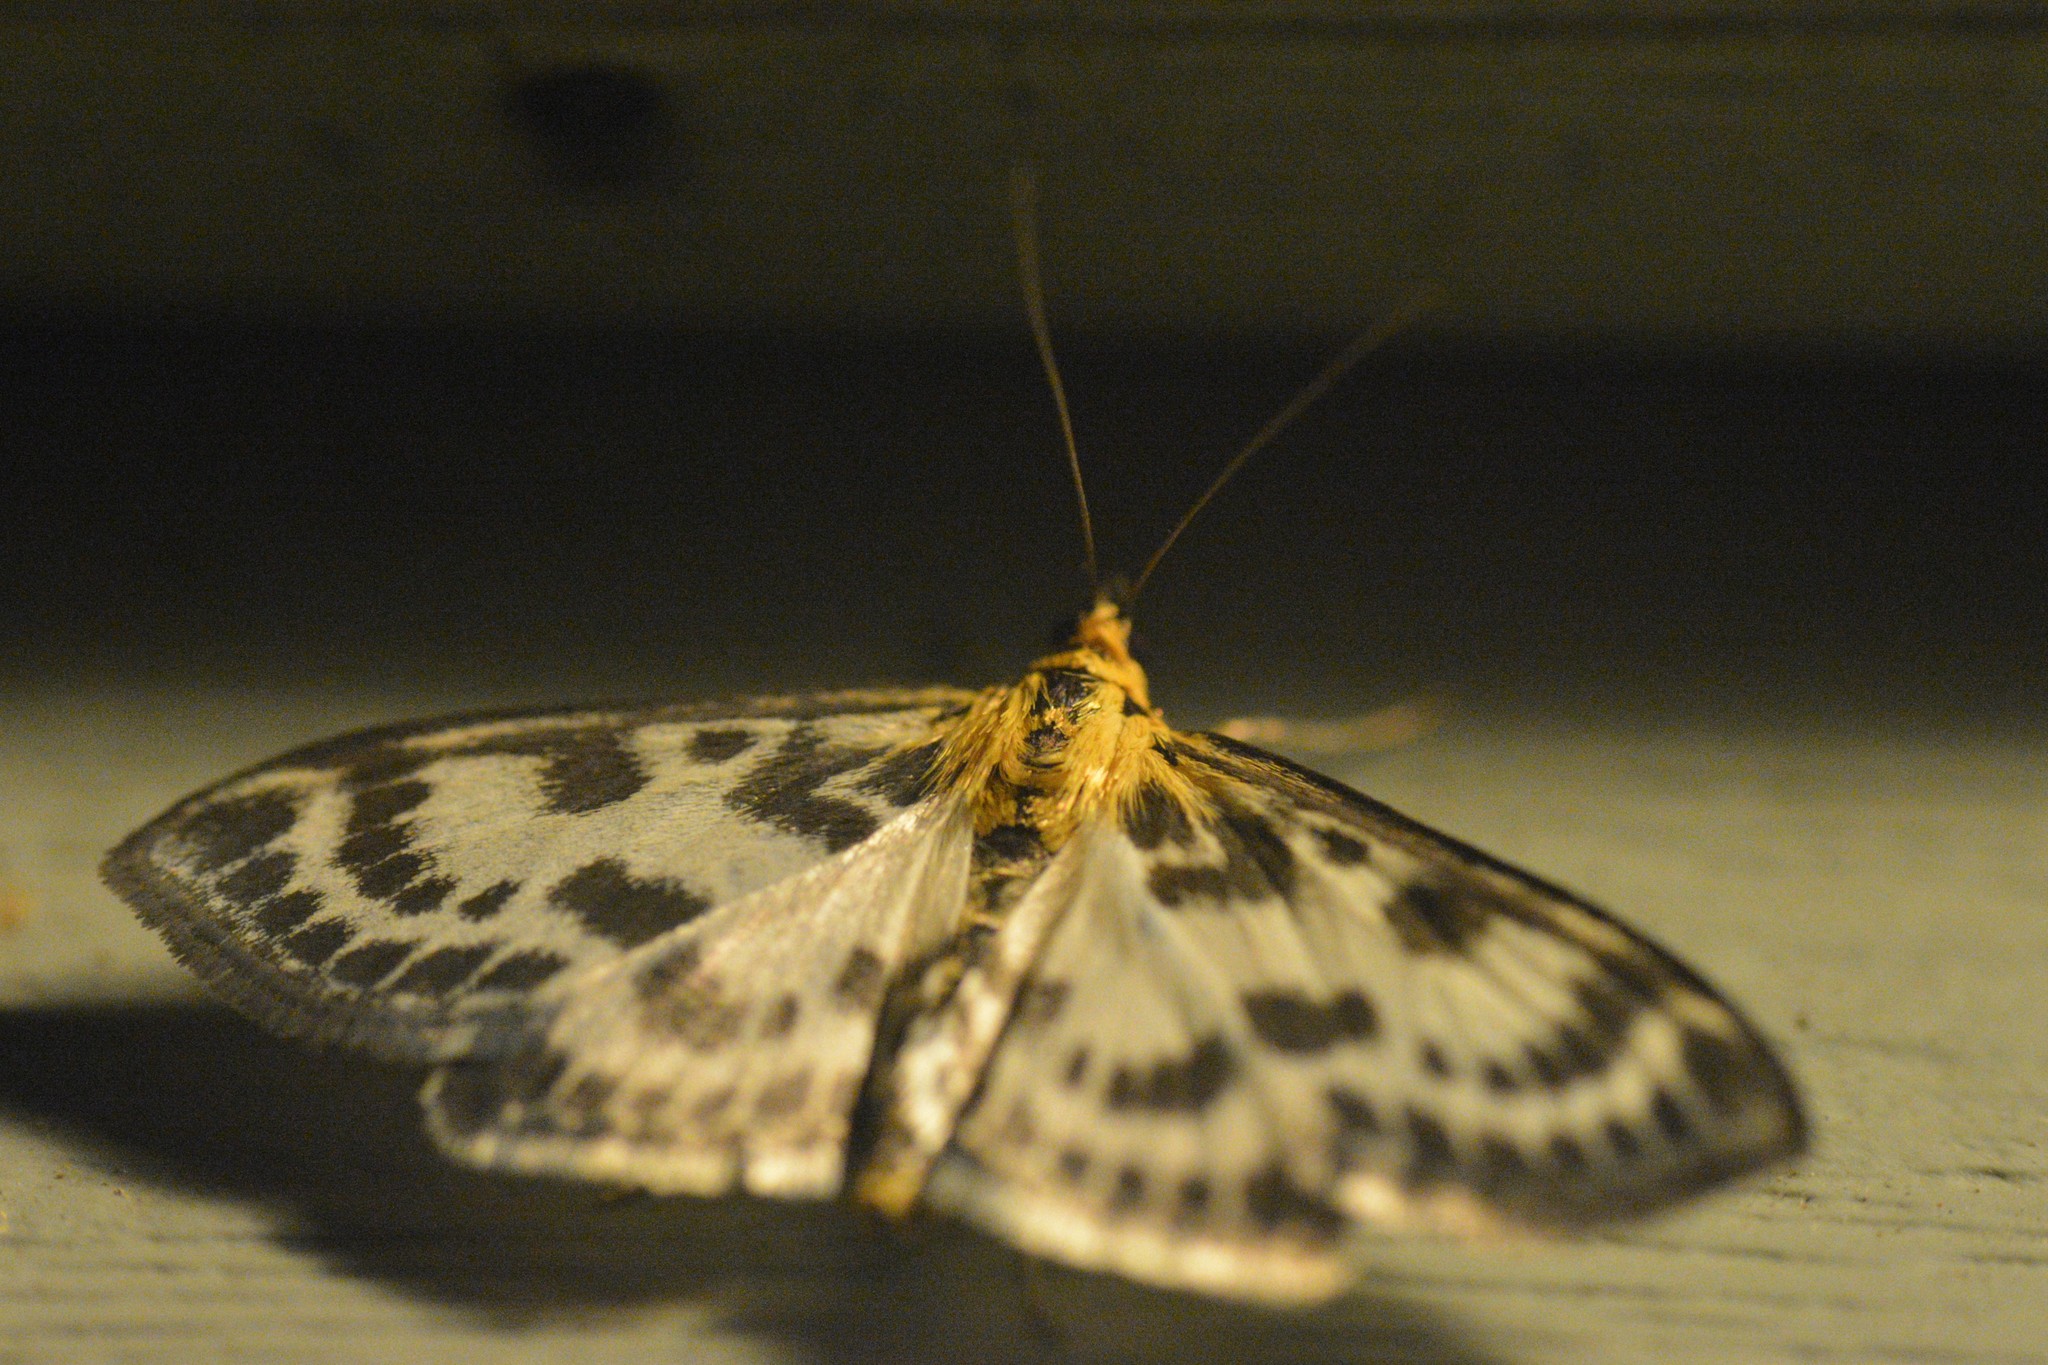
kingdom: Animalia
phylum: Arthropoda
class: Insecta
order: Lepidoptera
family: Crambidae
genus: Anania
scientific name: Anania hortulata
